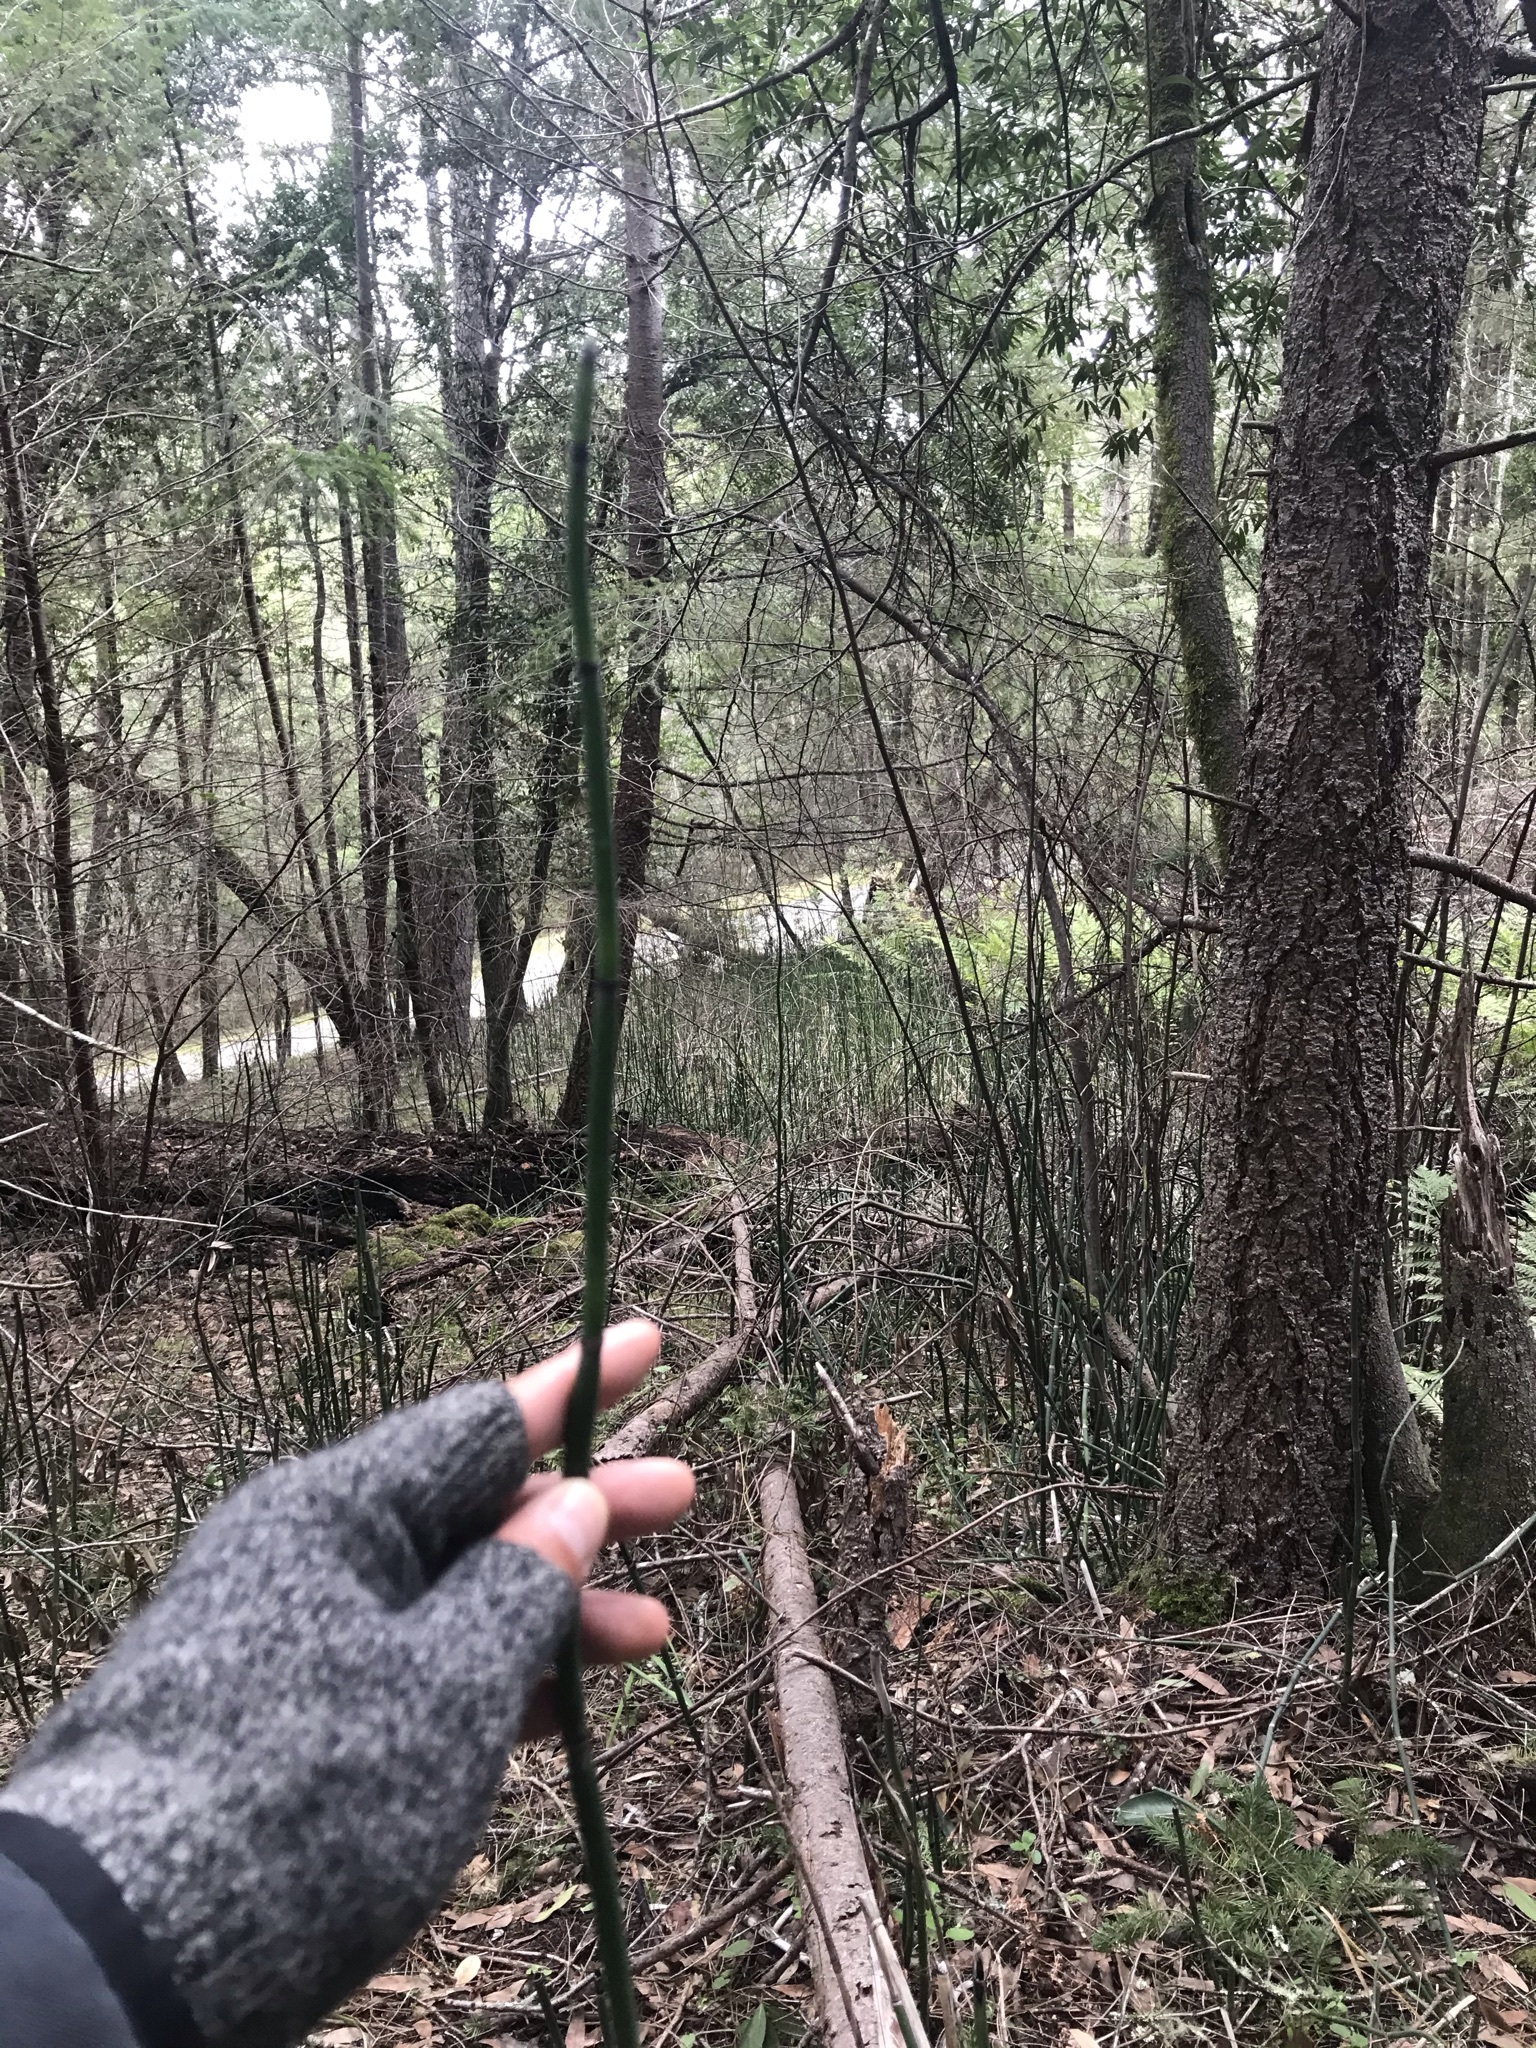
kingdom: Plantae
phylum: Tracheophyta
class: Polypodiopsida
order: Equisetales
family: Equisetaceae
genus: Equisetum
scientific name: Equisetum hyemale
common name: Rough horsetail
